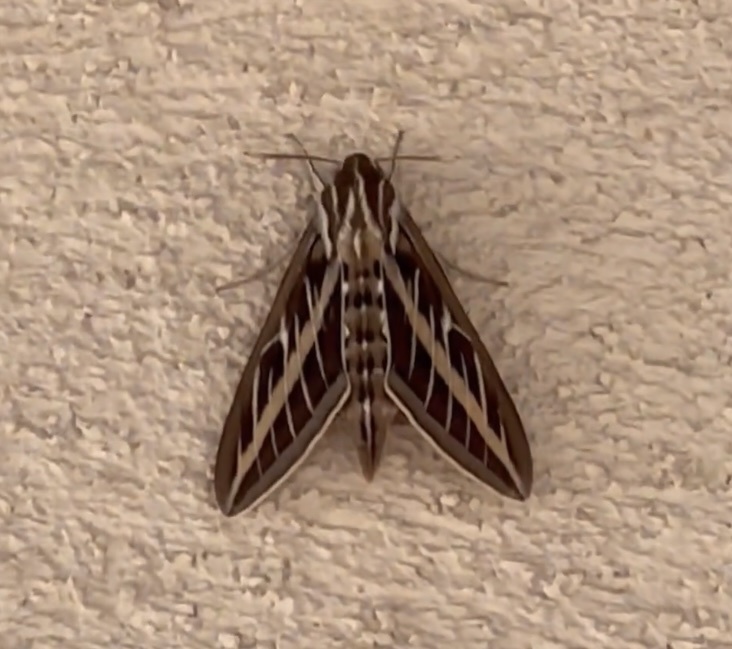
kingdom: Animalia
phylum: Arthropoda
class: Insecta
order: Lepidoptera
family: Sphingidae
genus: Hyles
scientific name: Hyles lineata
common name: White-lined sphinx
